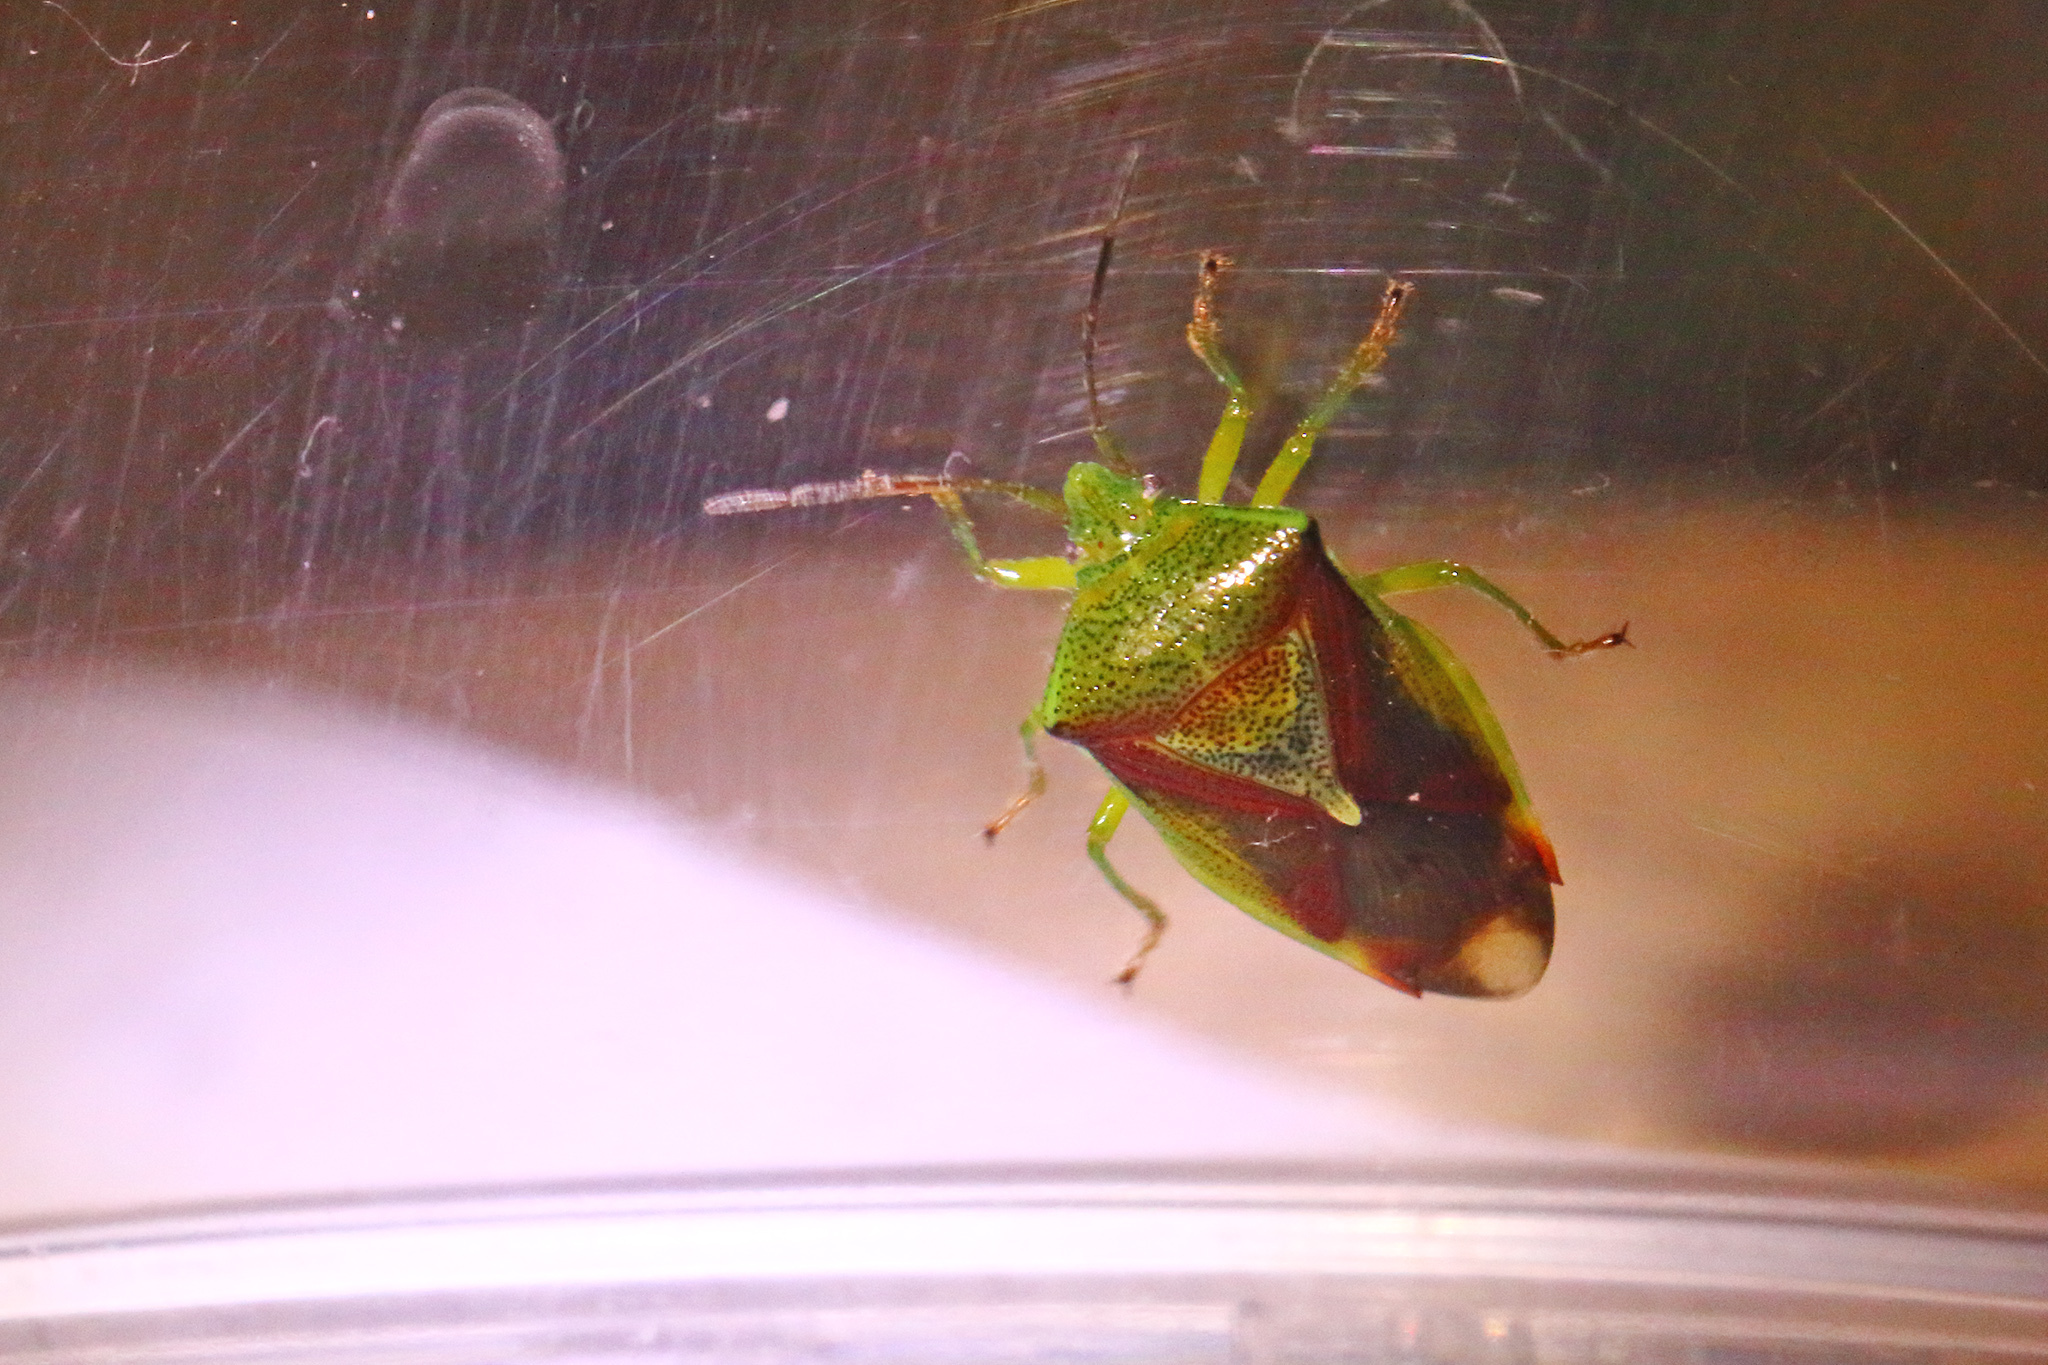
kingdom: Animalia
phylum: Arthropoda
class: Insecta
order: Hemiptera
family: Acanthosomatidae
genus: Elasmostethus
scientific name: Elasmostethus interstinctus
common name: Birch shieldbug
